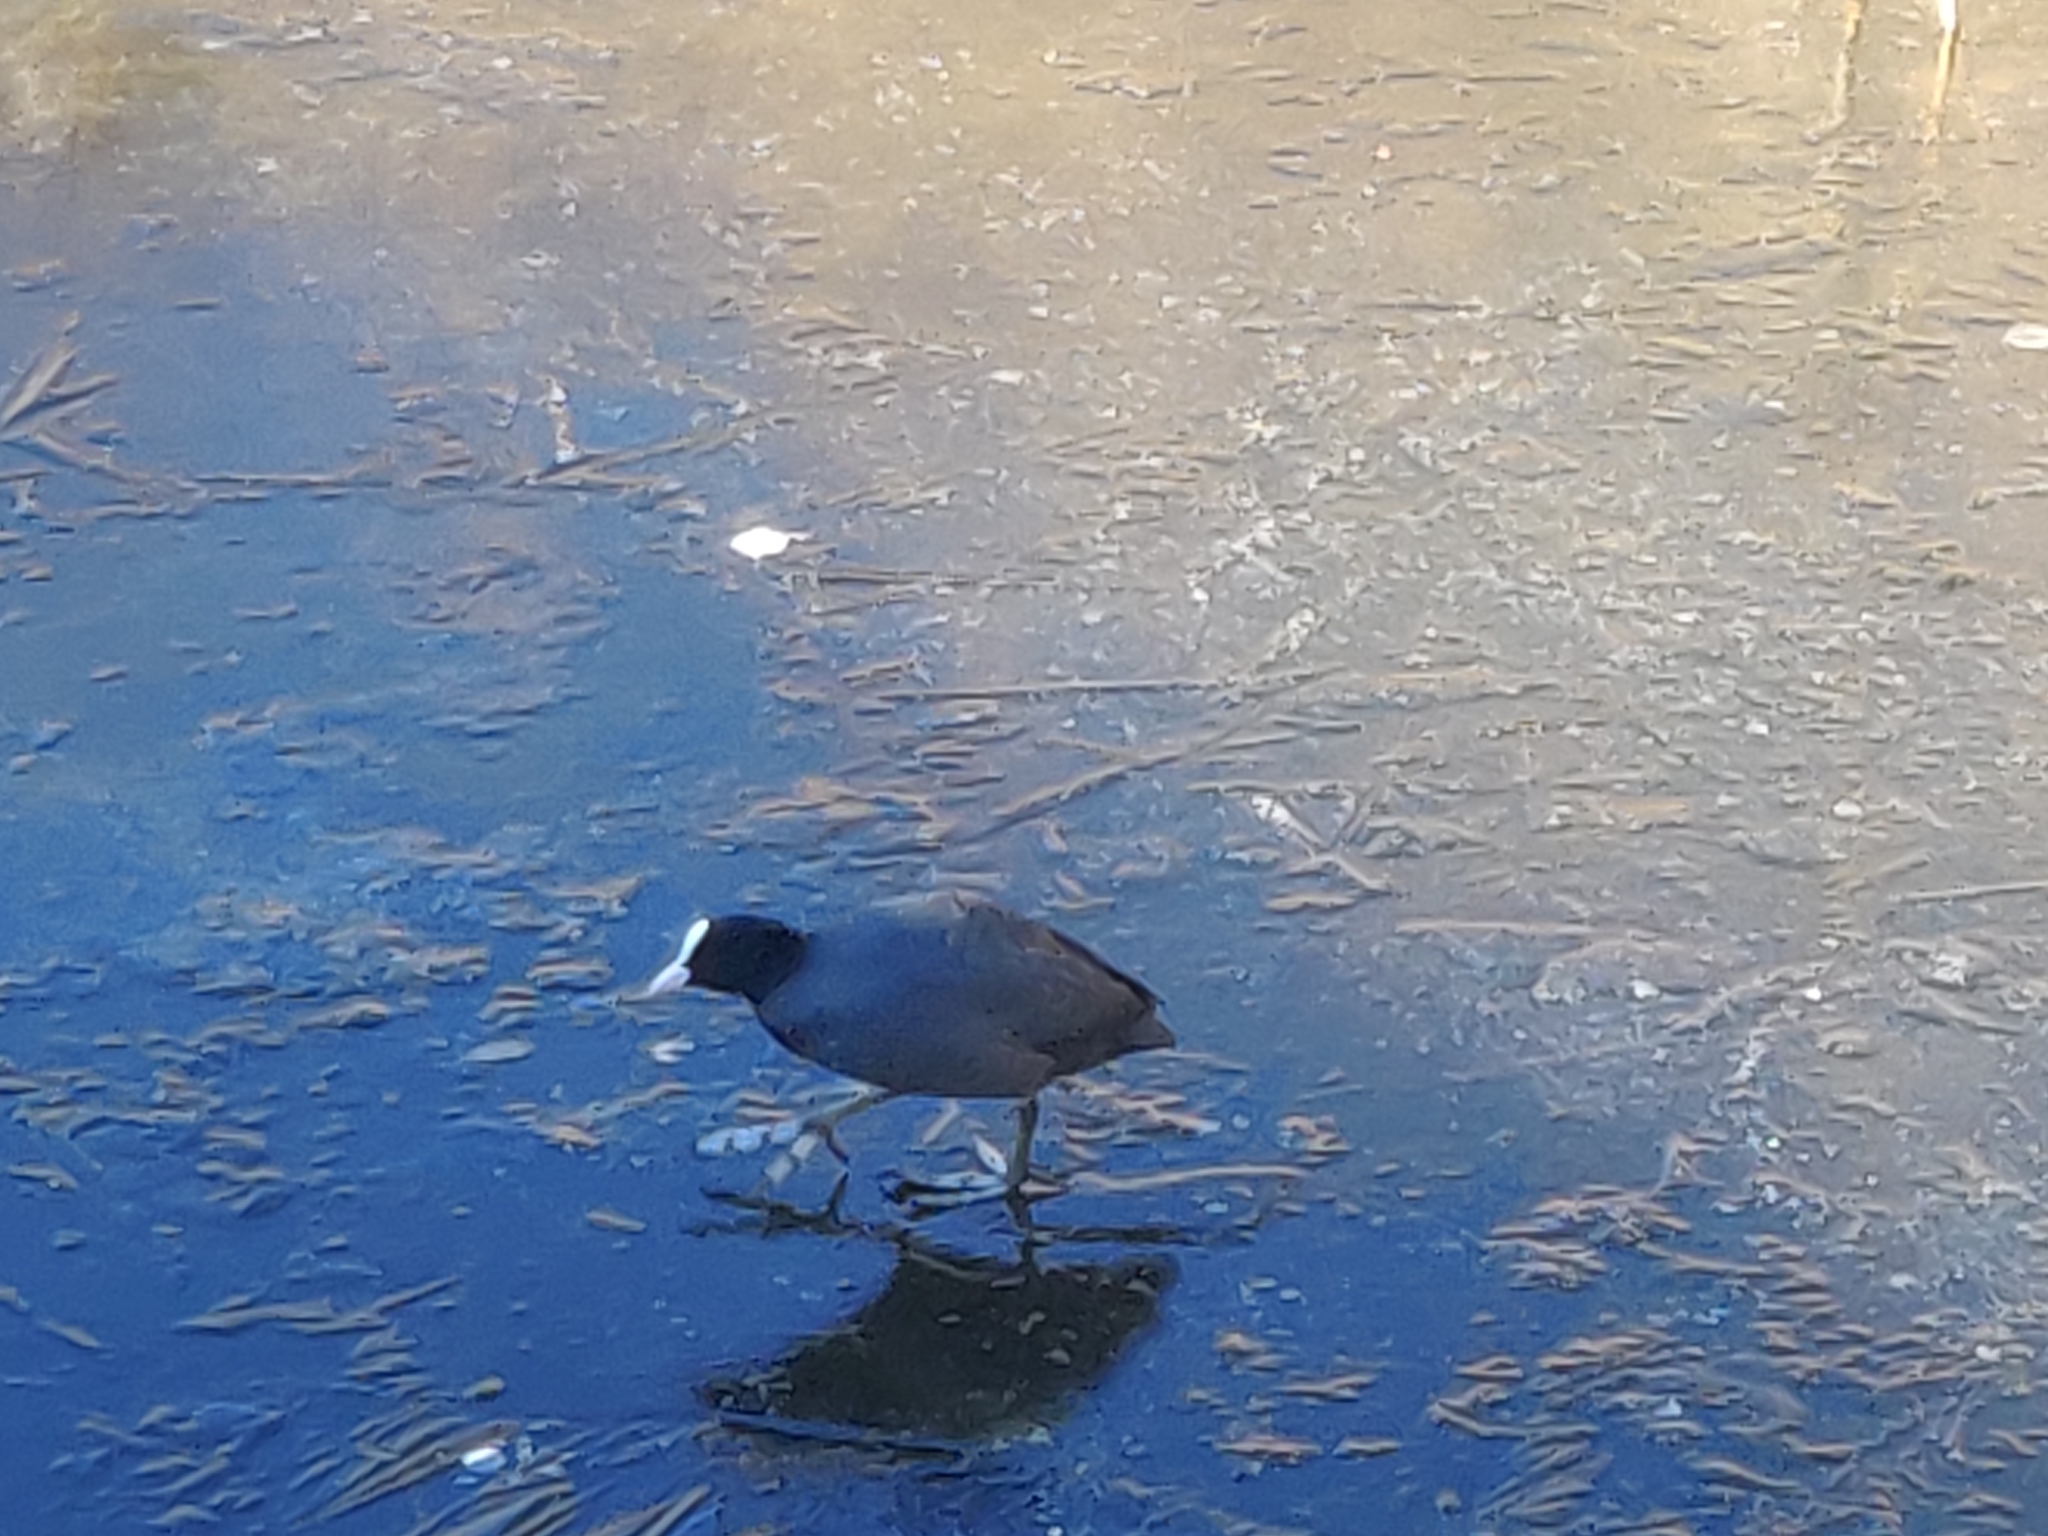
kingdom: Animalia
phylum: Chordata
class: Aves
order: Gruiformes
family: Rallidae
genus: Fulica
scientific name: Fulica atra
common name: Eurasian coot
